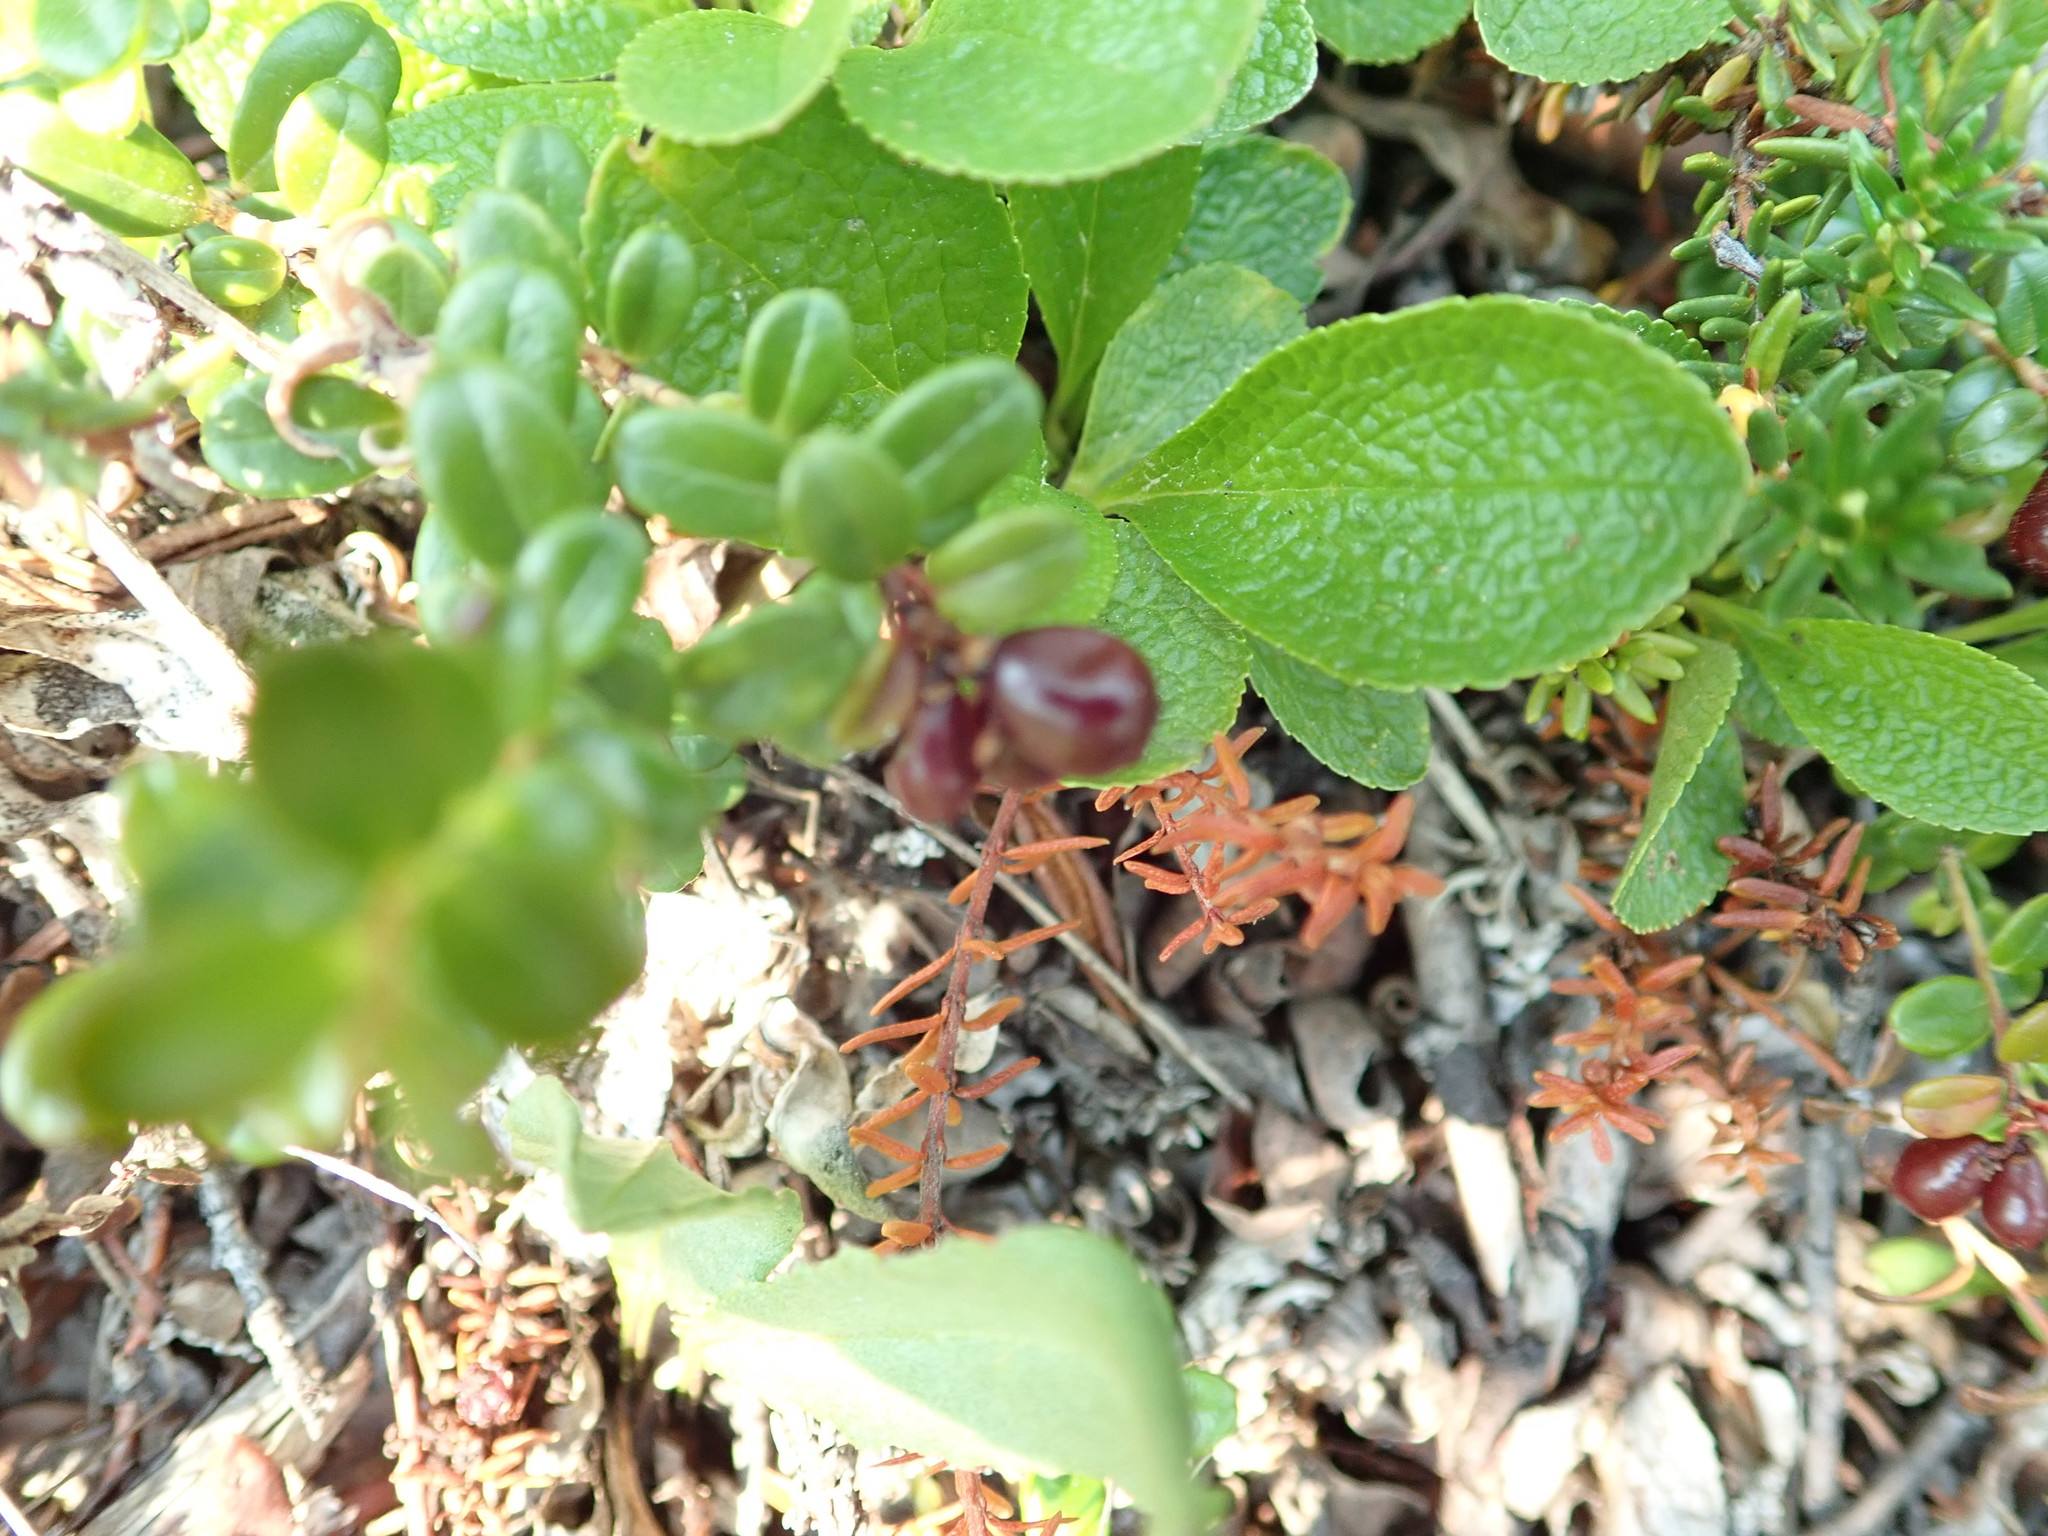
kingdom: Plantae
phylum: Tracheophyta
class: Magnoliopsida
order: Ericales
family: Ericaceae
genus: Vaccinium
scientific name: Vaccinium vitis-idaea
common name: Cowberry
